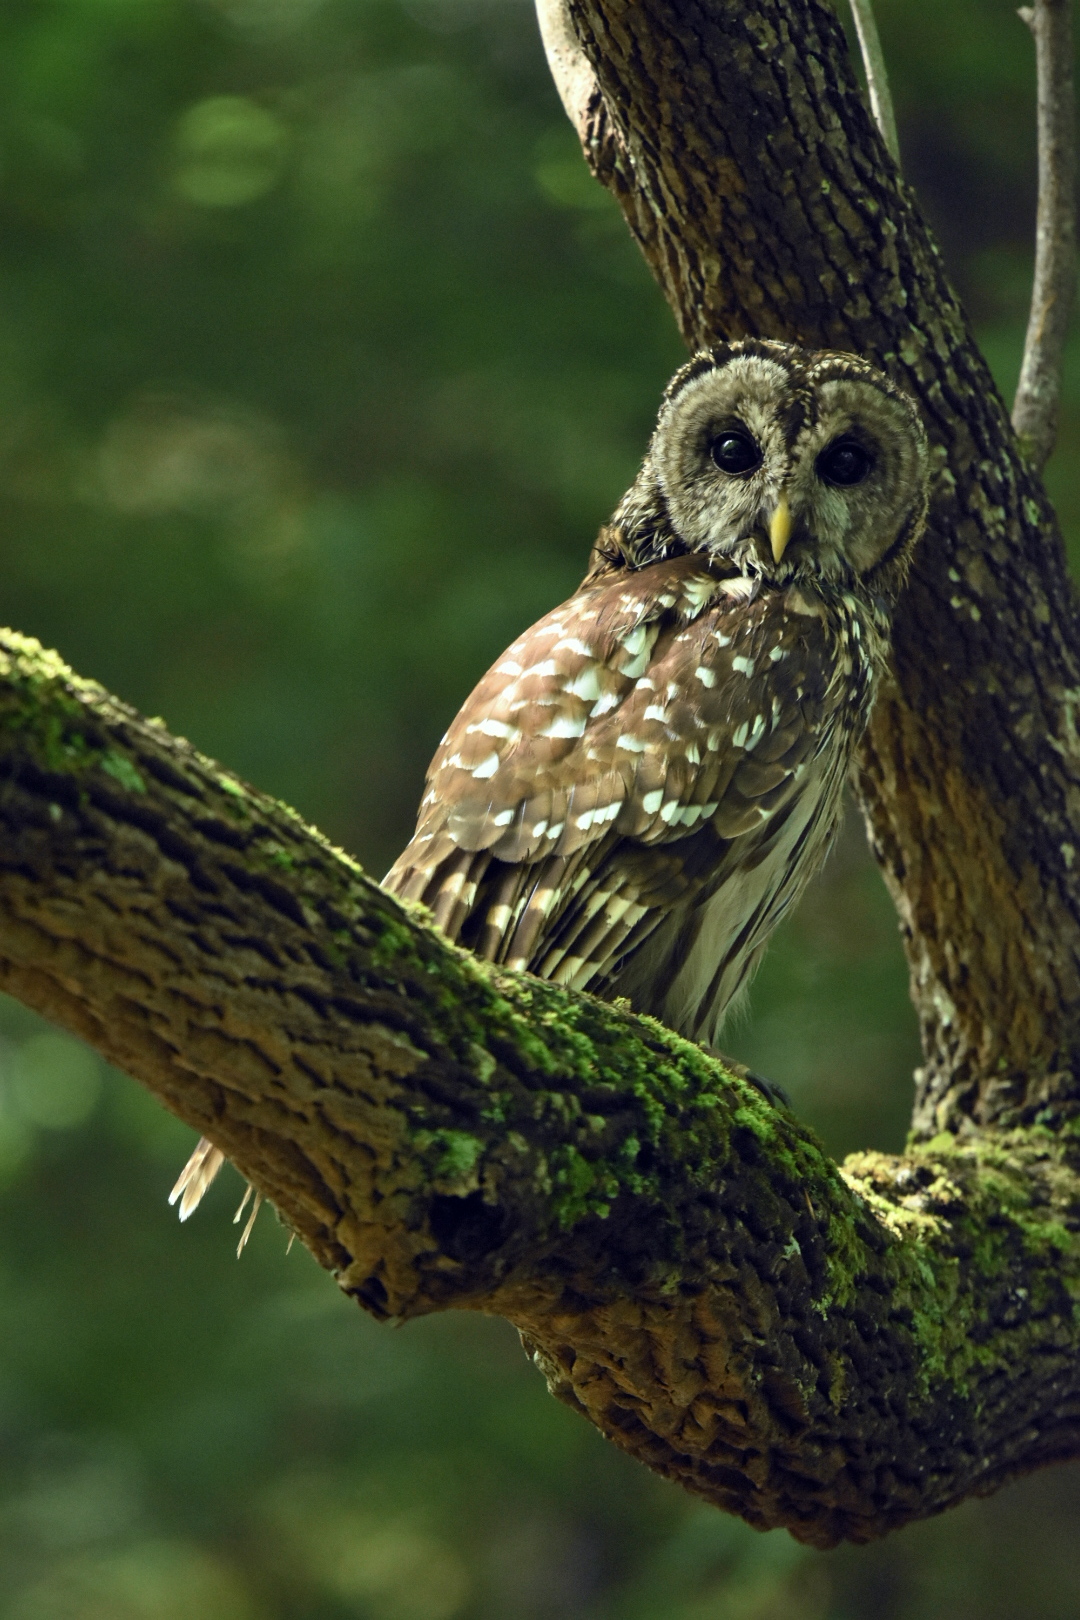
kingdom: Animalia
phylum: Chordata
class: Aves
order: Strigiformes
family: Strigidae
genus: Strix
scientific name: Strix varia
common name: Barred owl
